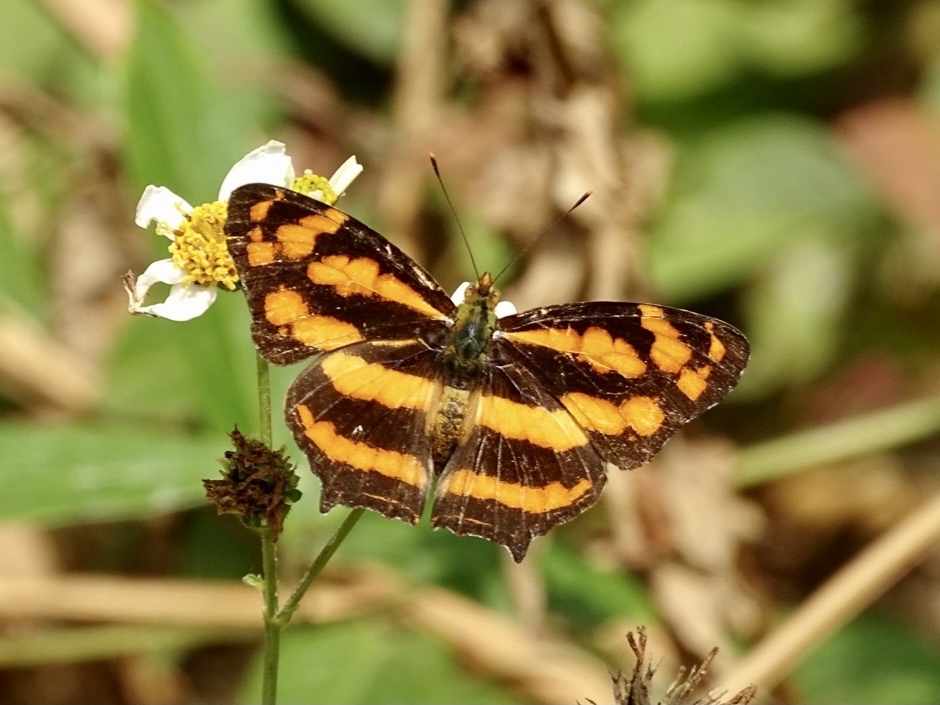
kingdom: Animalia
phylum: Arthropoda
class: Insecta
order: Lepidoptera
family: Nymphalidae
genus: Symbrenthia
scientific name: Symbrenthia hypselis
